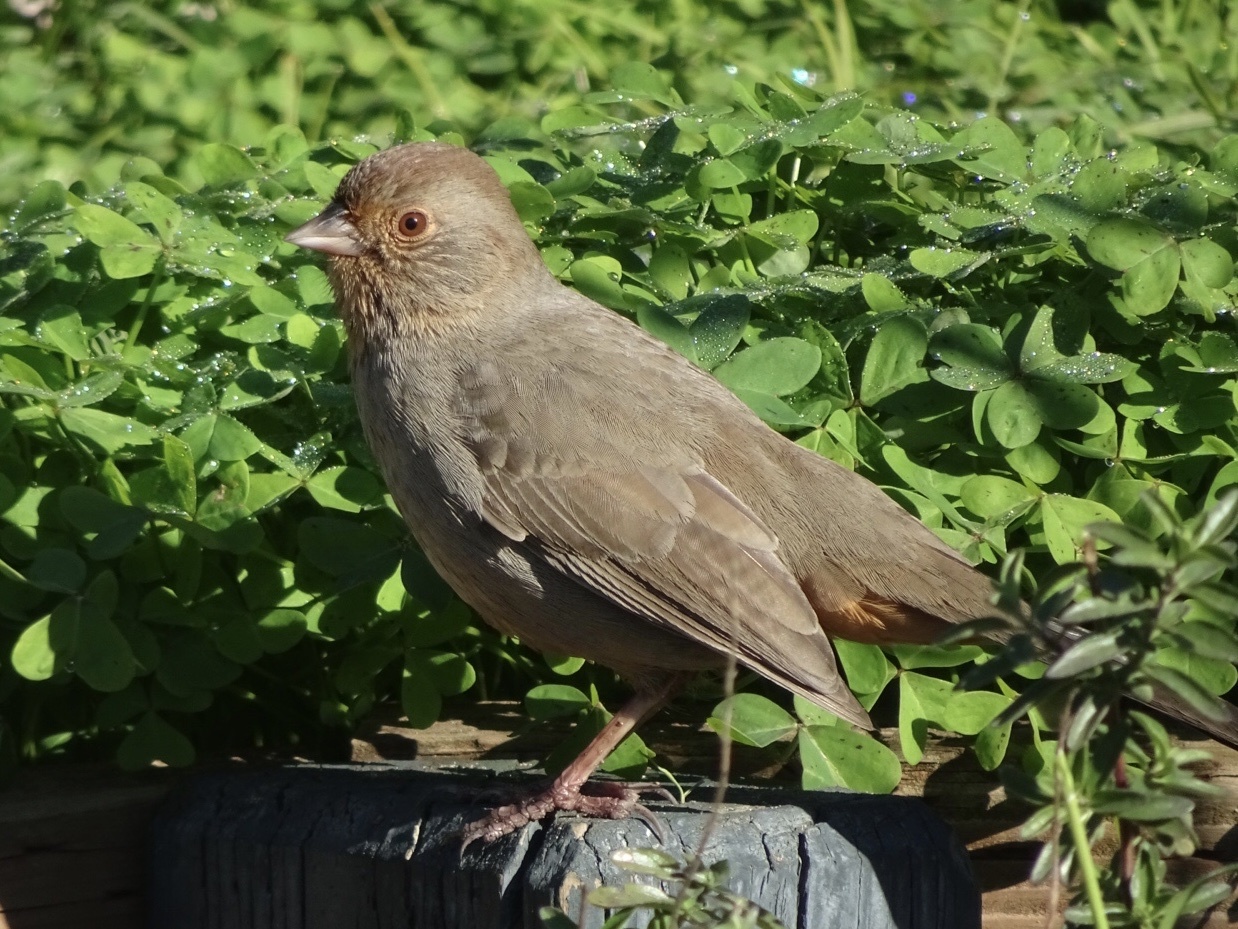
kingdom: Animalia
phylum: Chordata
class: Aves
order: Passeriformes
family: Passerellidae
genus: Melozone
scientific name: Melozone crissalis
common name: California towhee
